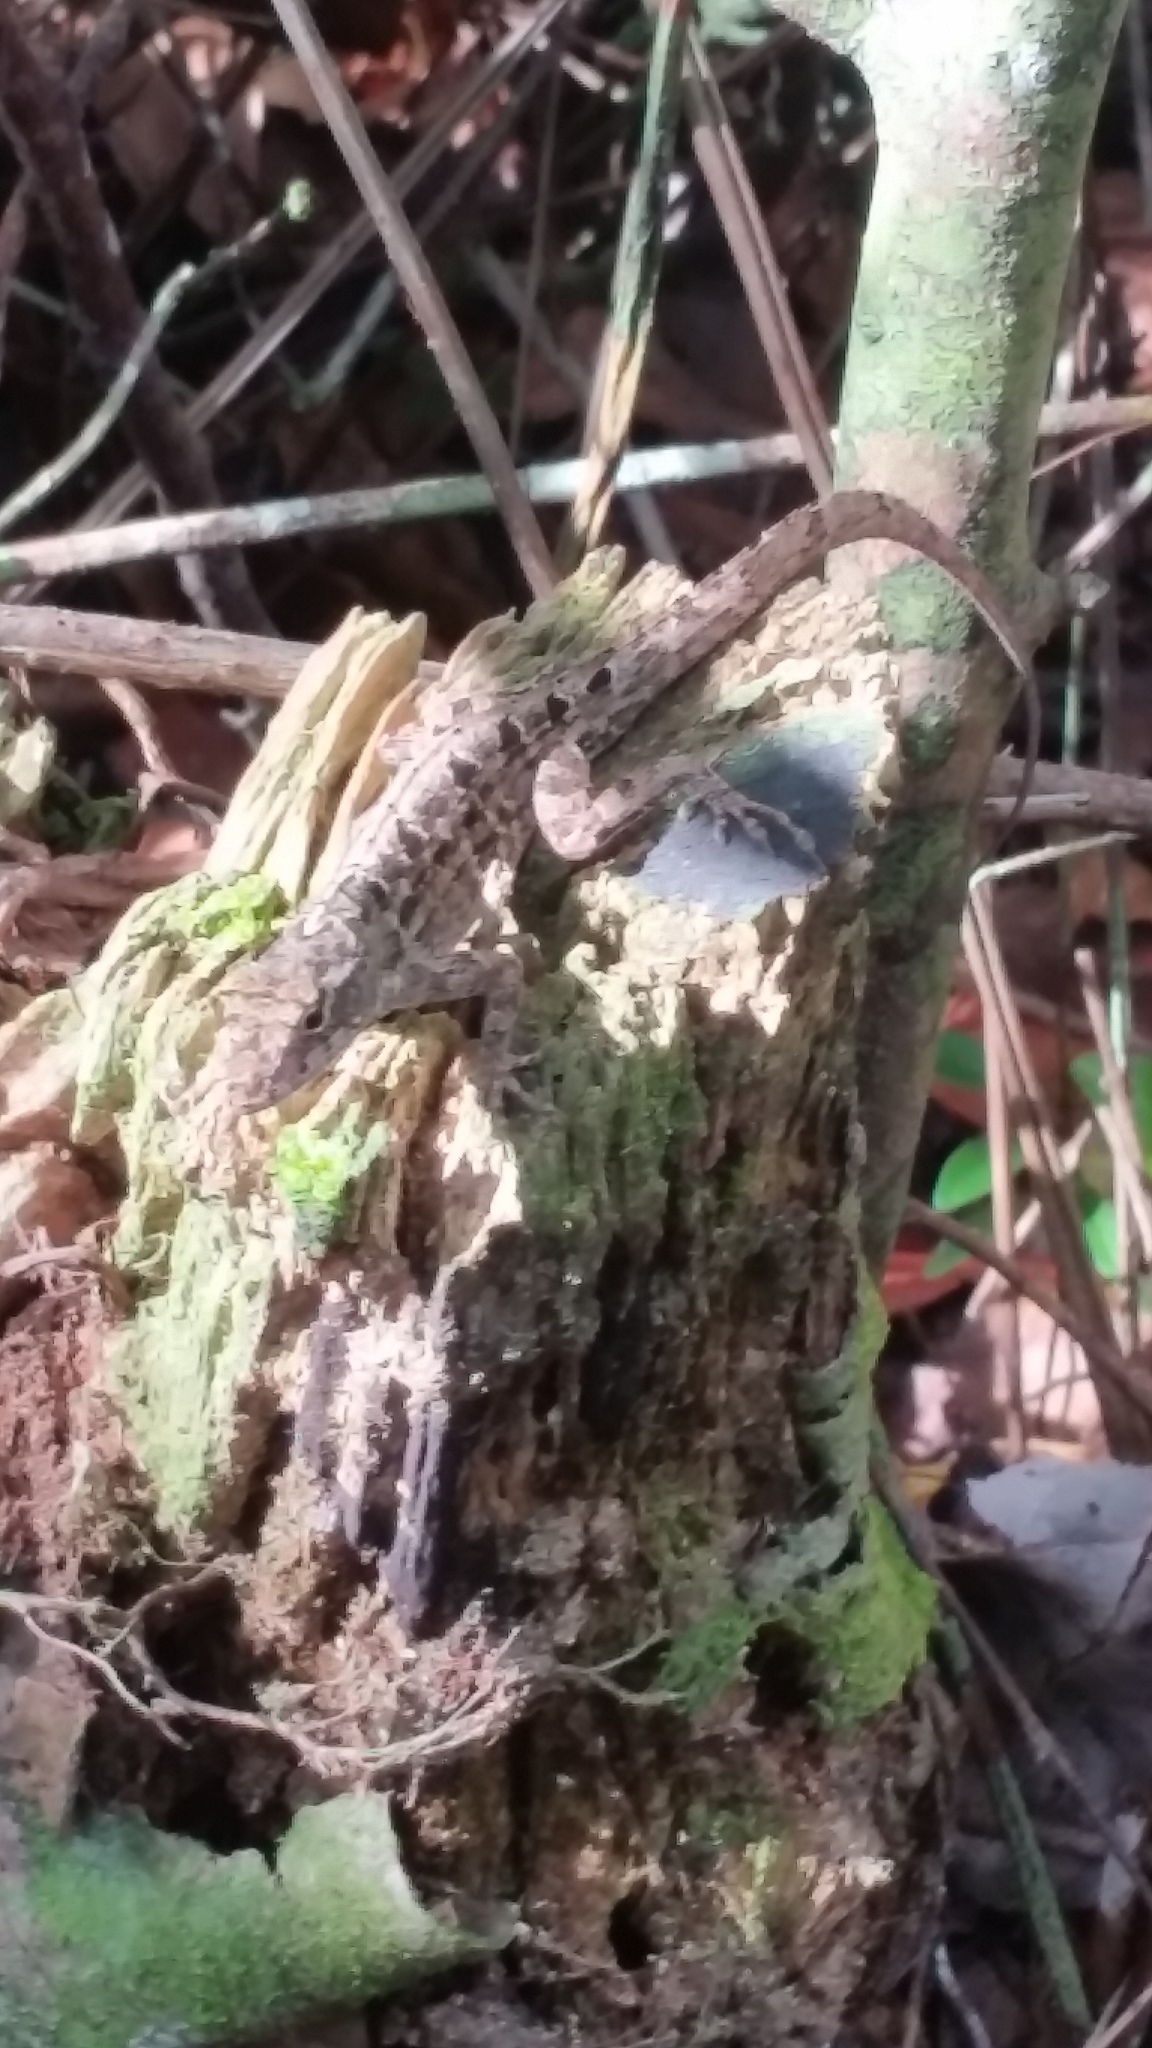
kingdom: Animalia
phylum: Chordata
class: Squamata
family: Dactyloidae
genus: Anolis
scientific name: Anolis sagrei
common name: Brown anole
